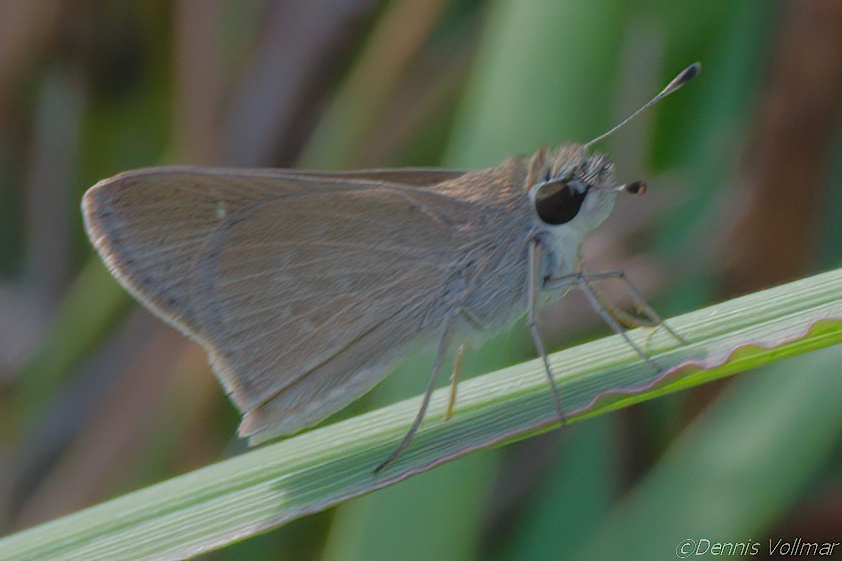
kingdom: Animalia
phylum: Arthropoda
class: Insecta
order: Lepidoptera
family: Hesperiidae
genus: Lerodea
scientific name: Lerodea eufala
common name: Eufala skipper
